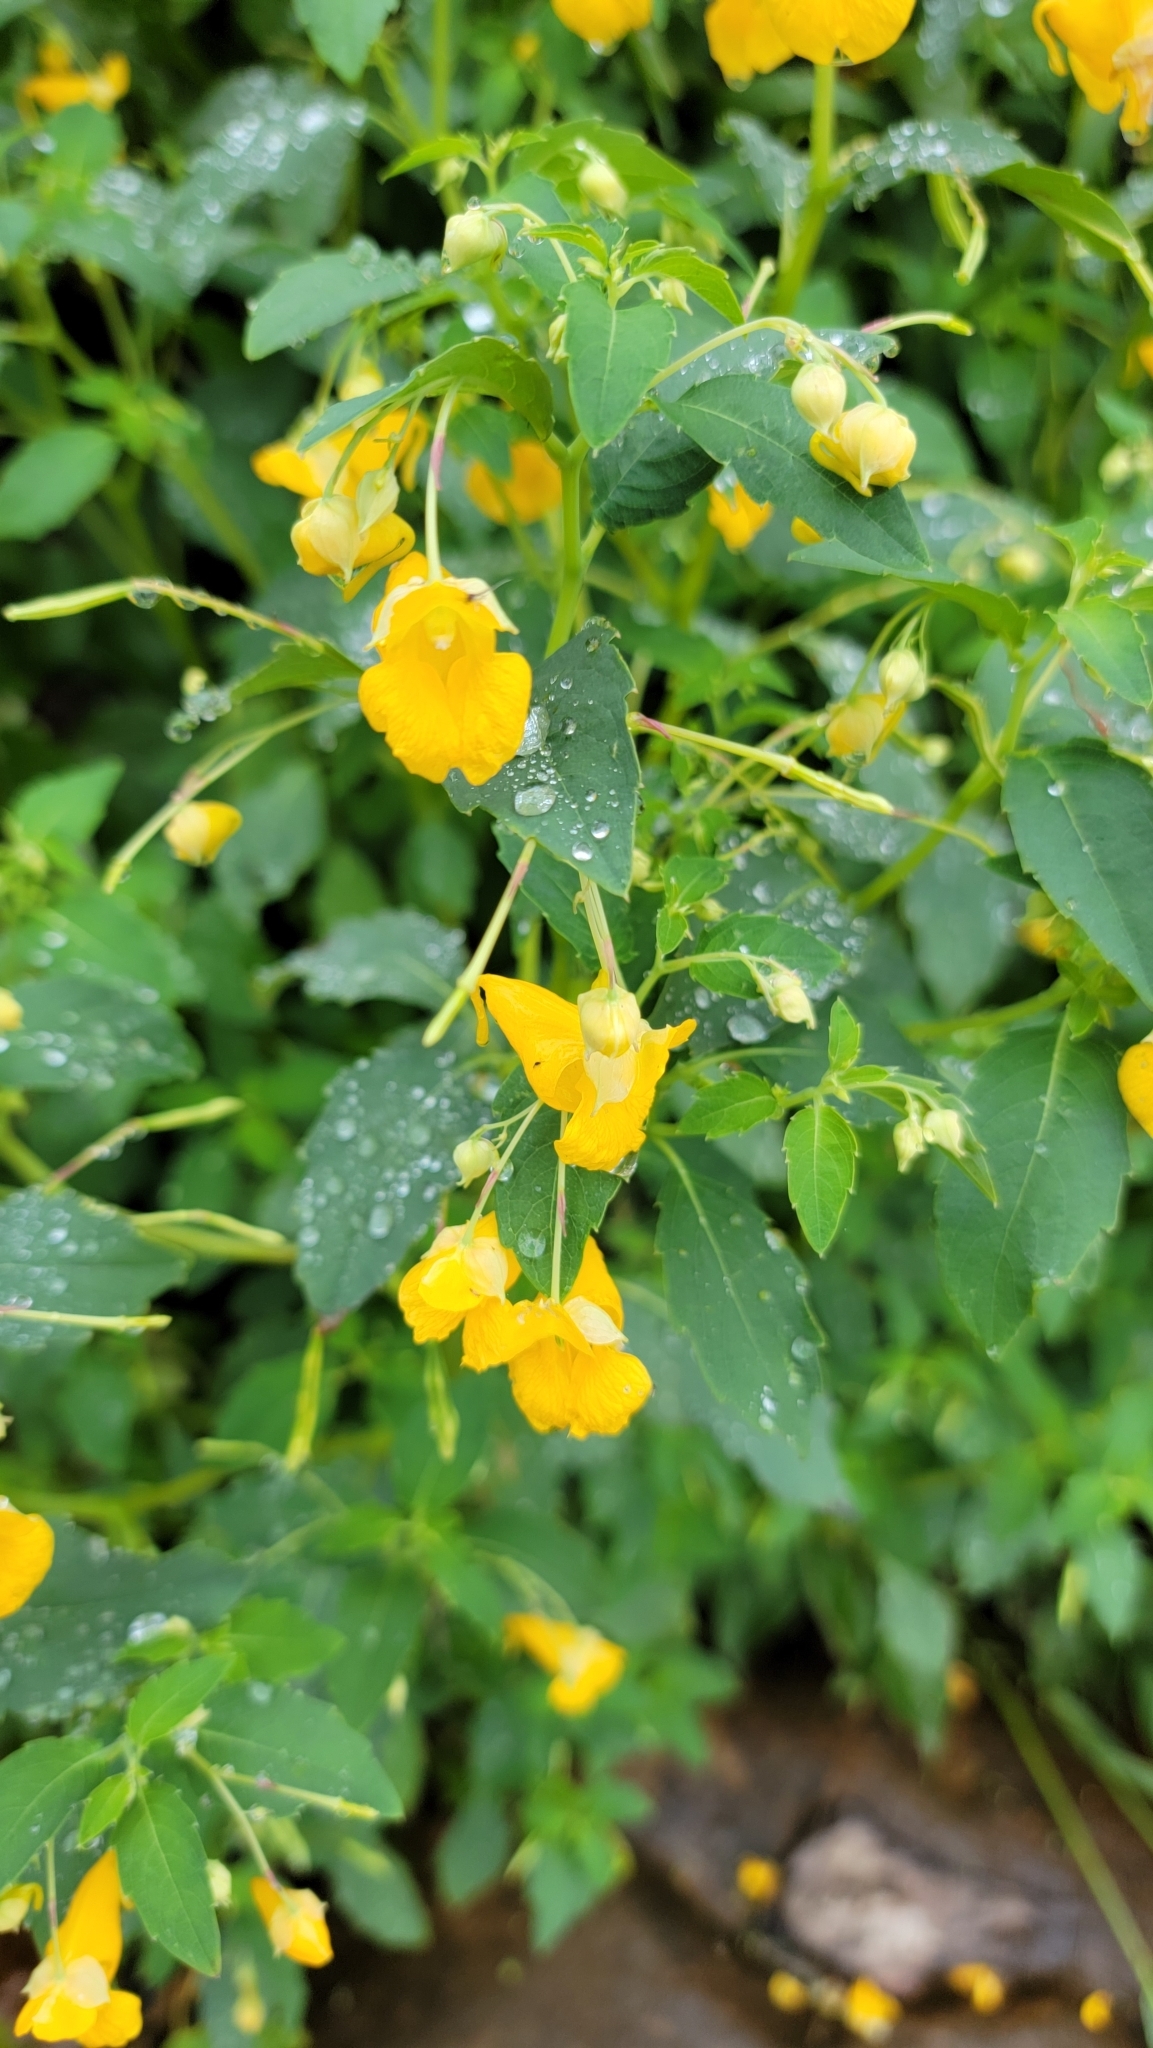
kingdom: Plantae
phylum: Tracheophyta
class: Magnoliopsida
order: Ericales
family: Balsaminaceae
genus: Impatiens
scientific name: Impatiens capensis
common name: Orange balsam
